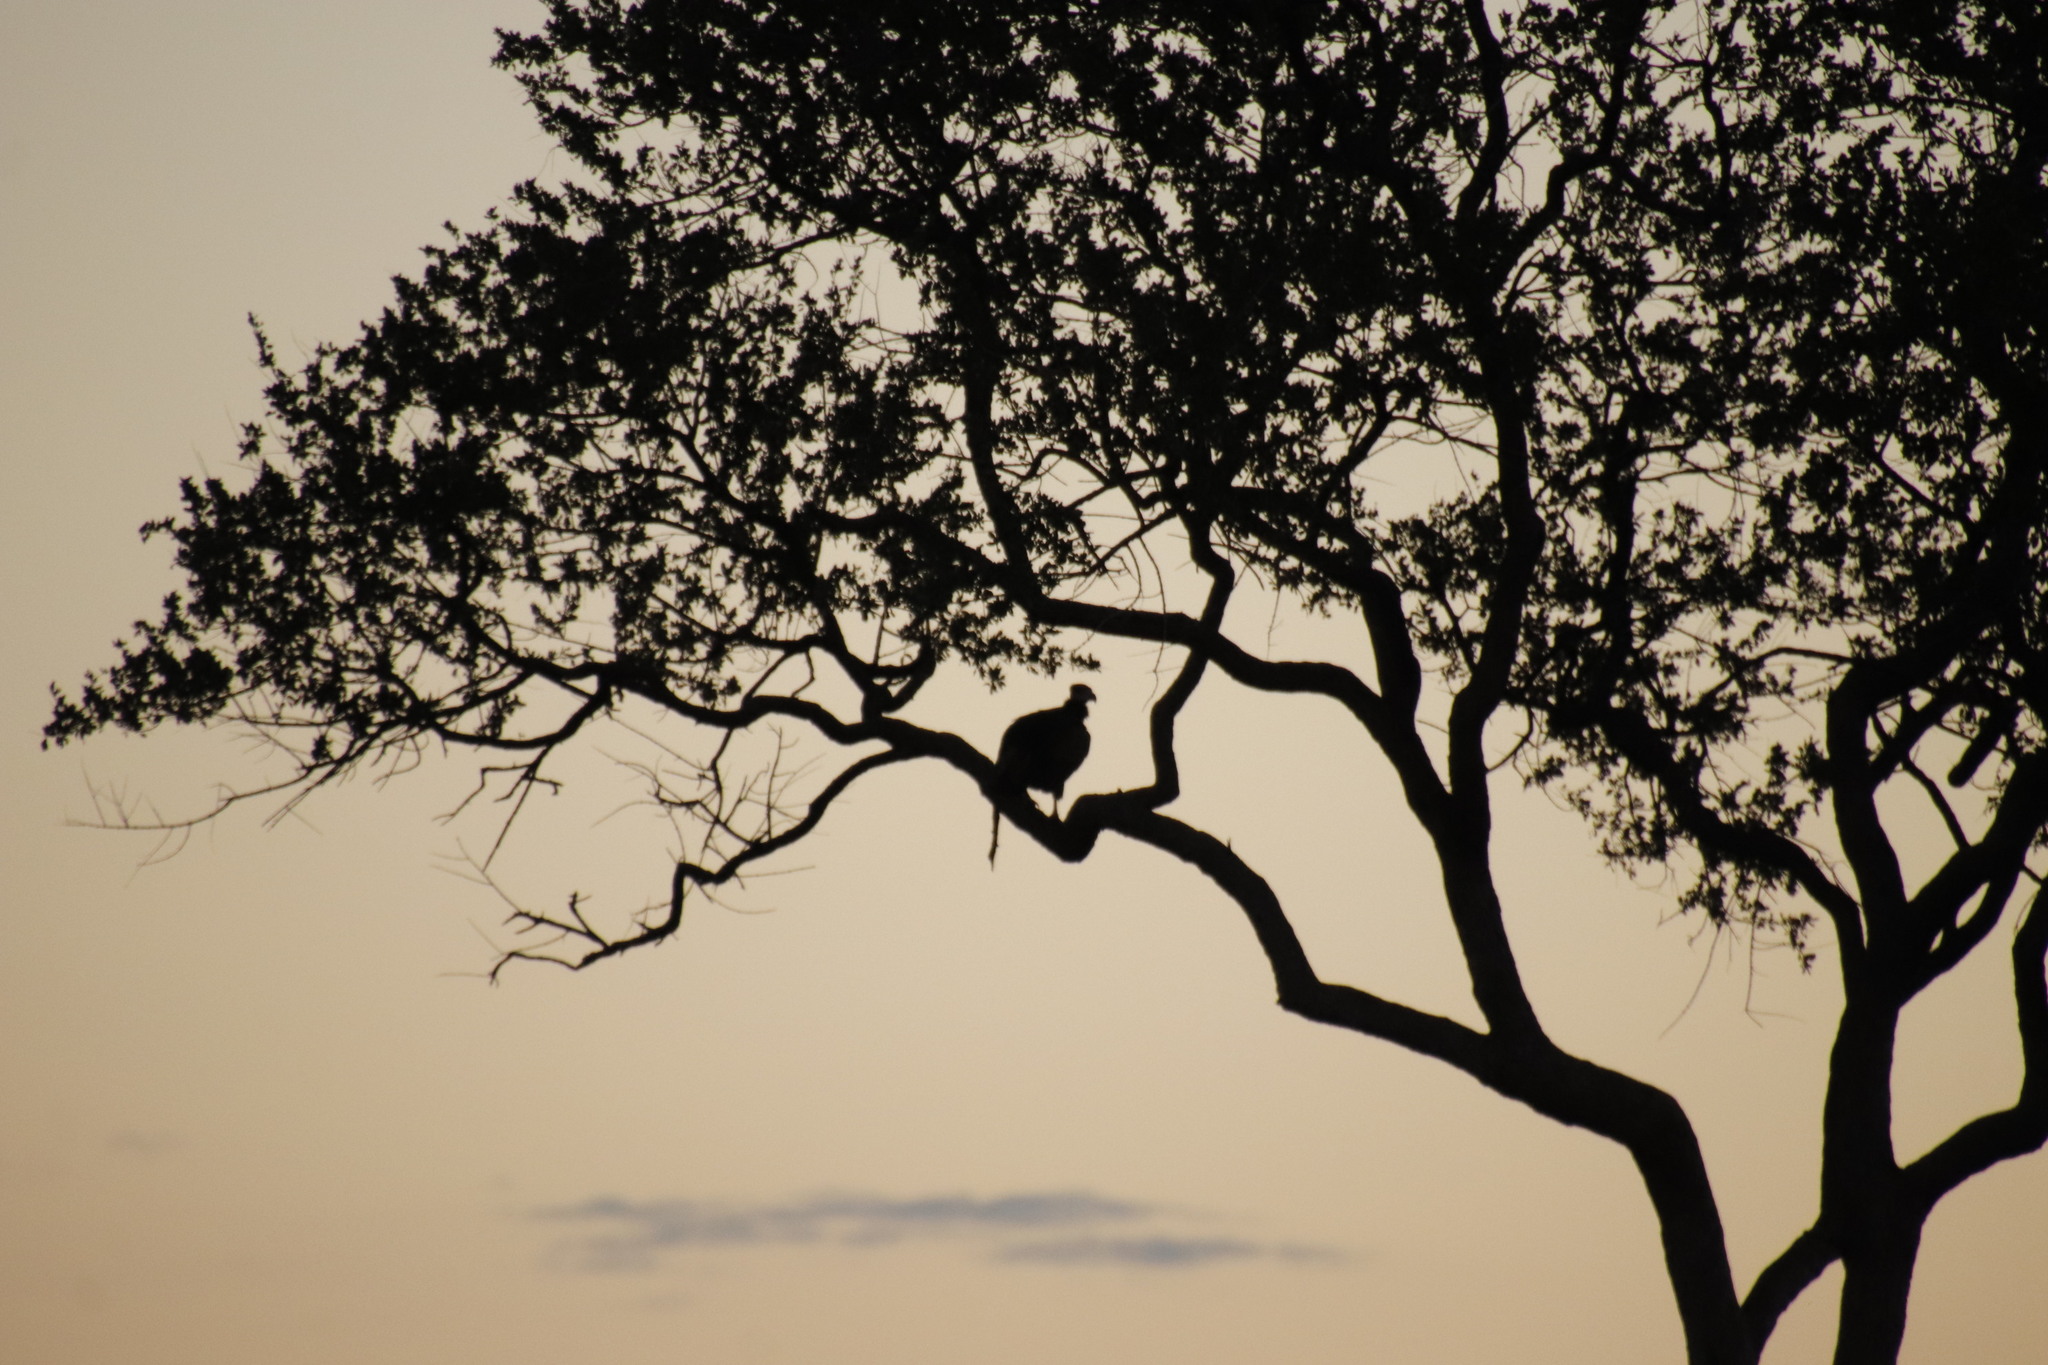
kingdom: Animalia
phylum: Chordata
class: Aves
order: Accipitriformes
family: Accipitridae
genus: Torgos
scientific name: Torgos tracheliotos
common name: Lappet-faced vulture
